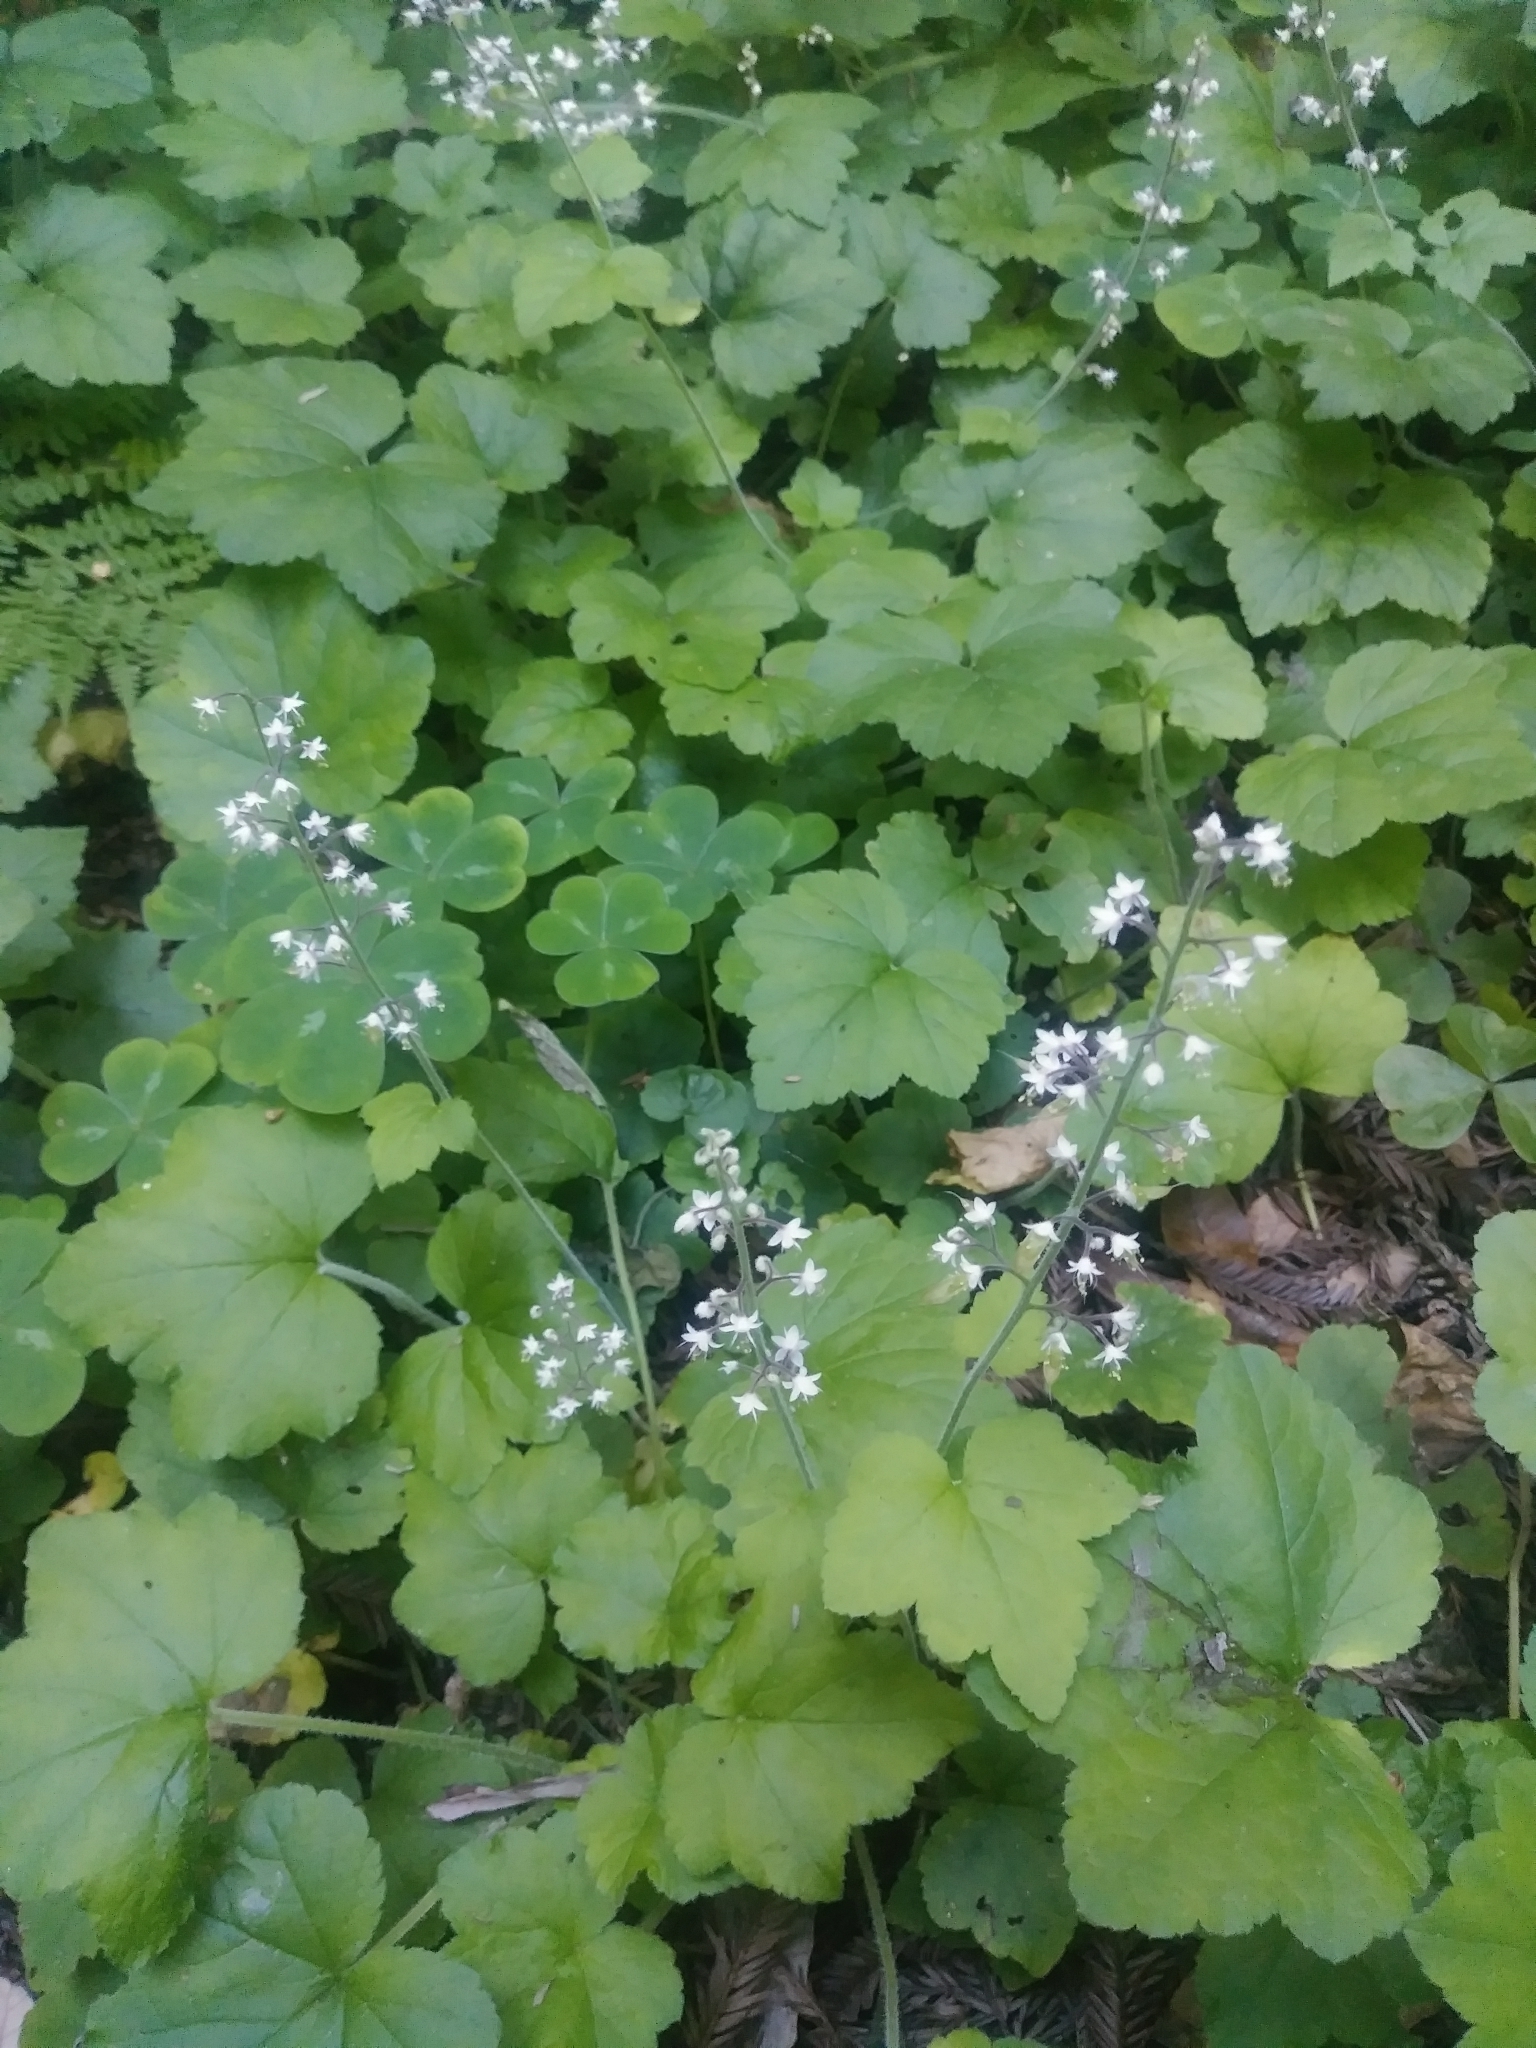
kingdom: Plantae
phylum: Tracheophyta
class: Magnoliopsida
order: Saxifragales
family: Saxifragaceae
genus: Tiarella
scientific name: Tiarella trifoliata
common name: Sugar-scoop
